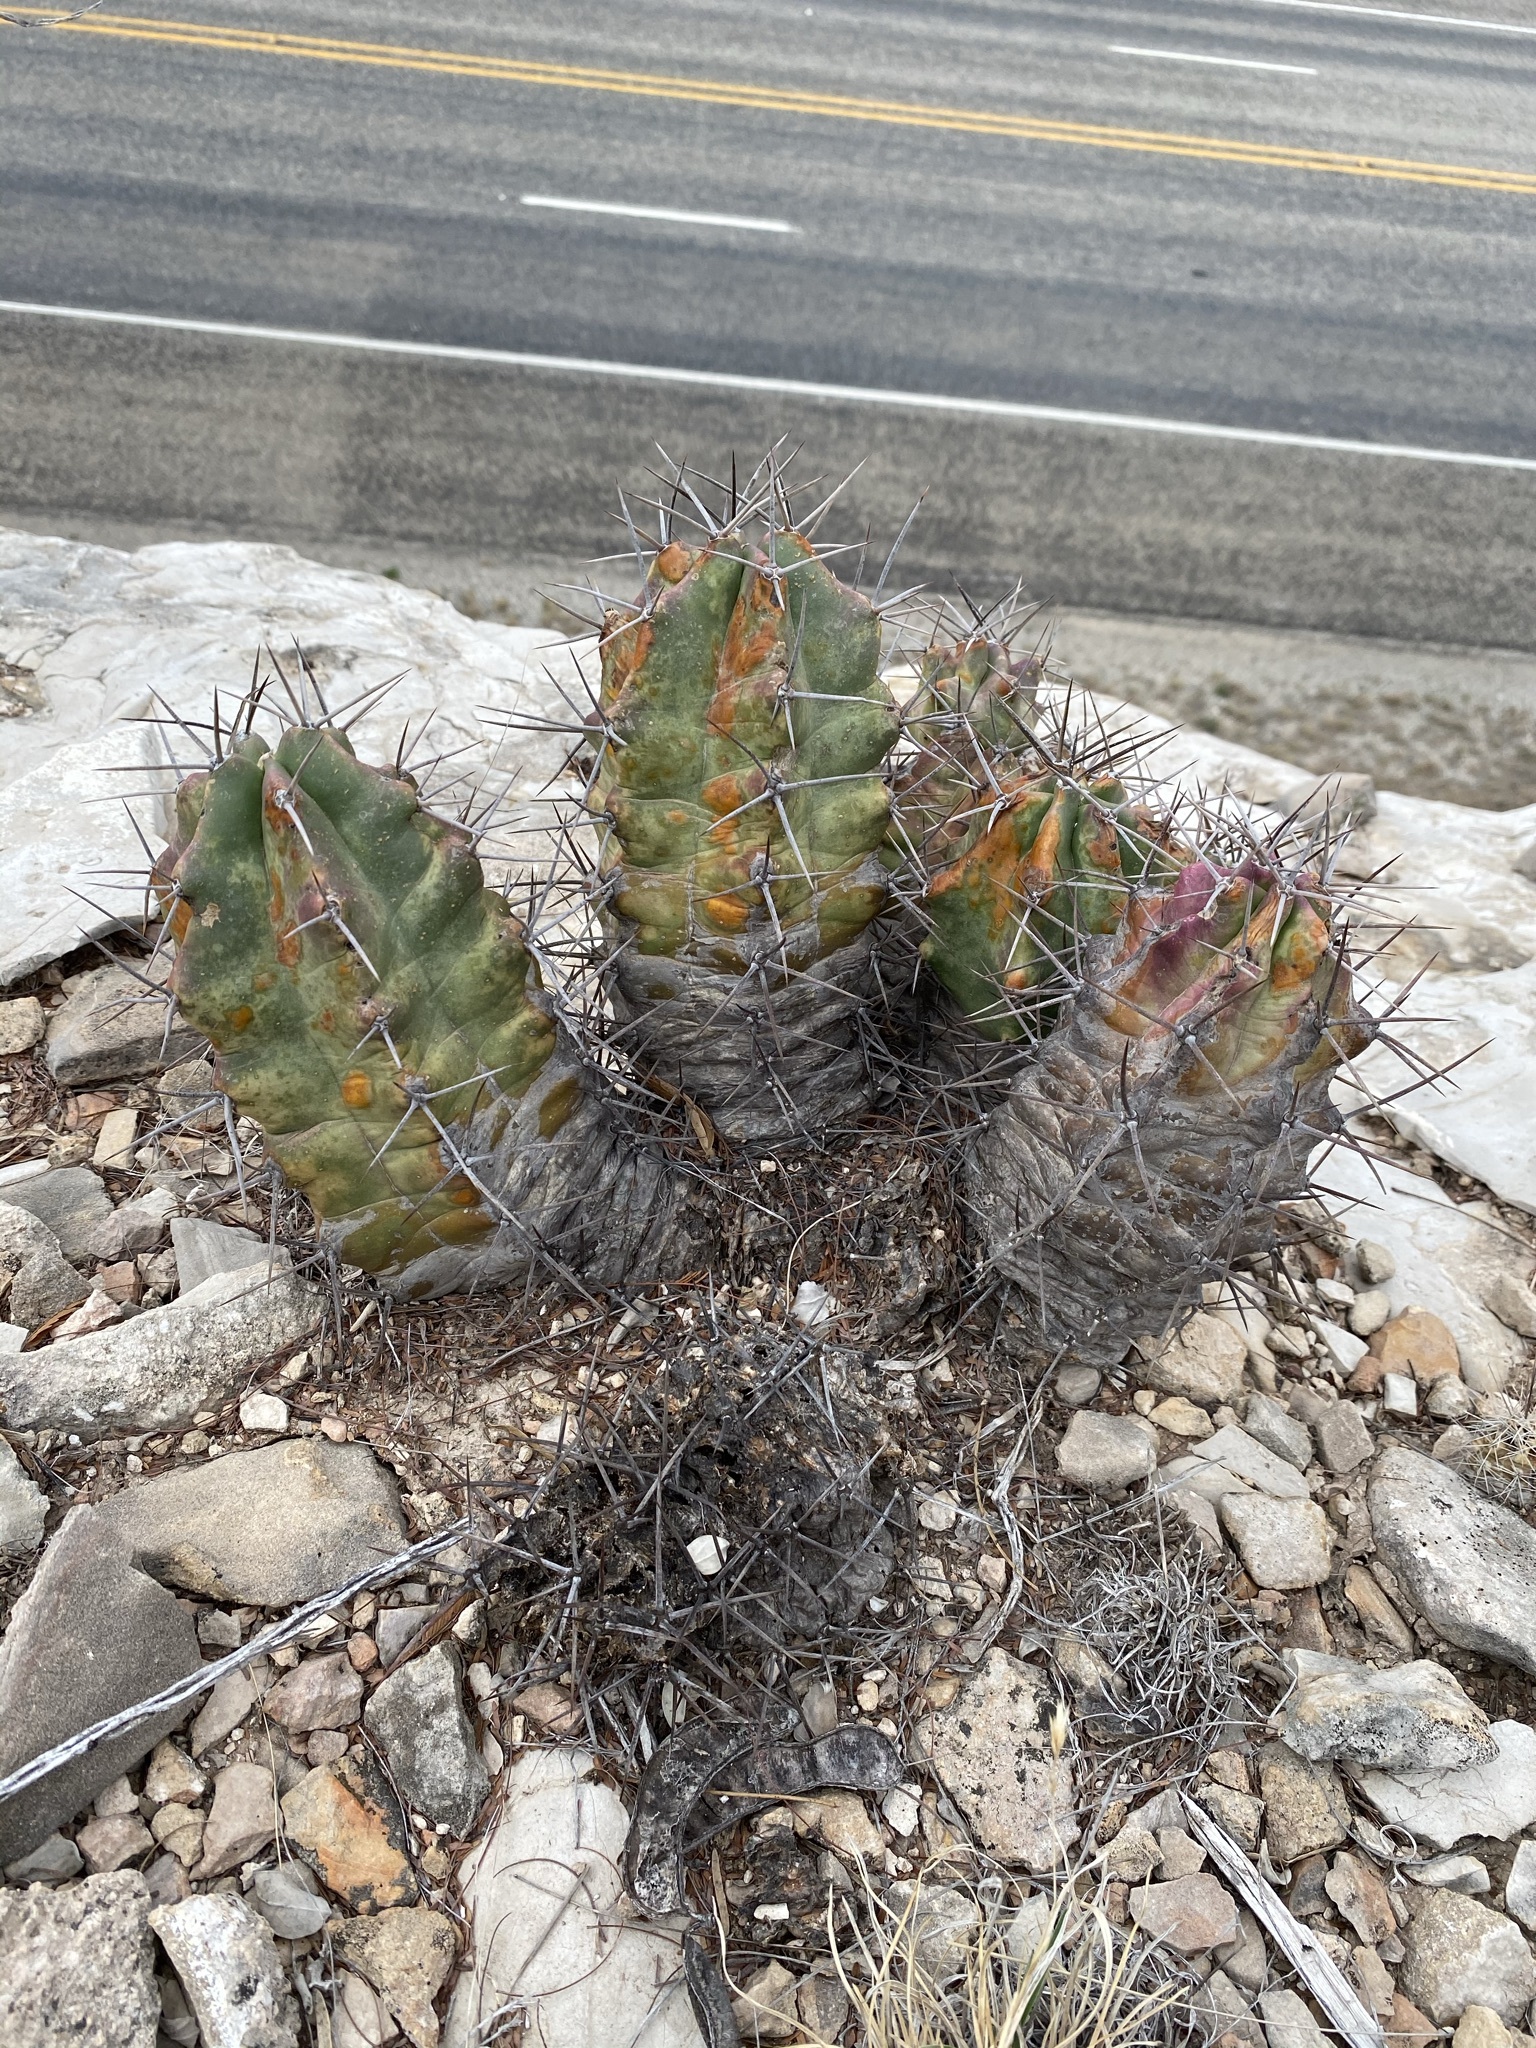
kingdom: Plantae
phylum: Tracheophyta
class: Magnoliopsida
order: Caryophyllales
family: Cactaceae
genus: Echinocereus
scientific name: Echinocereus coccineus
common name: Scarlet hedgehog cactus
